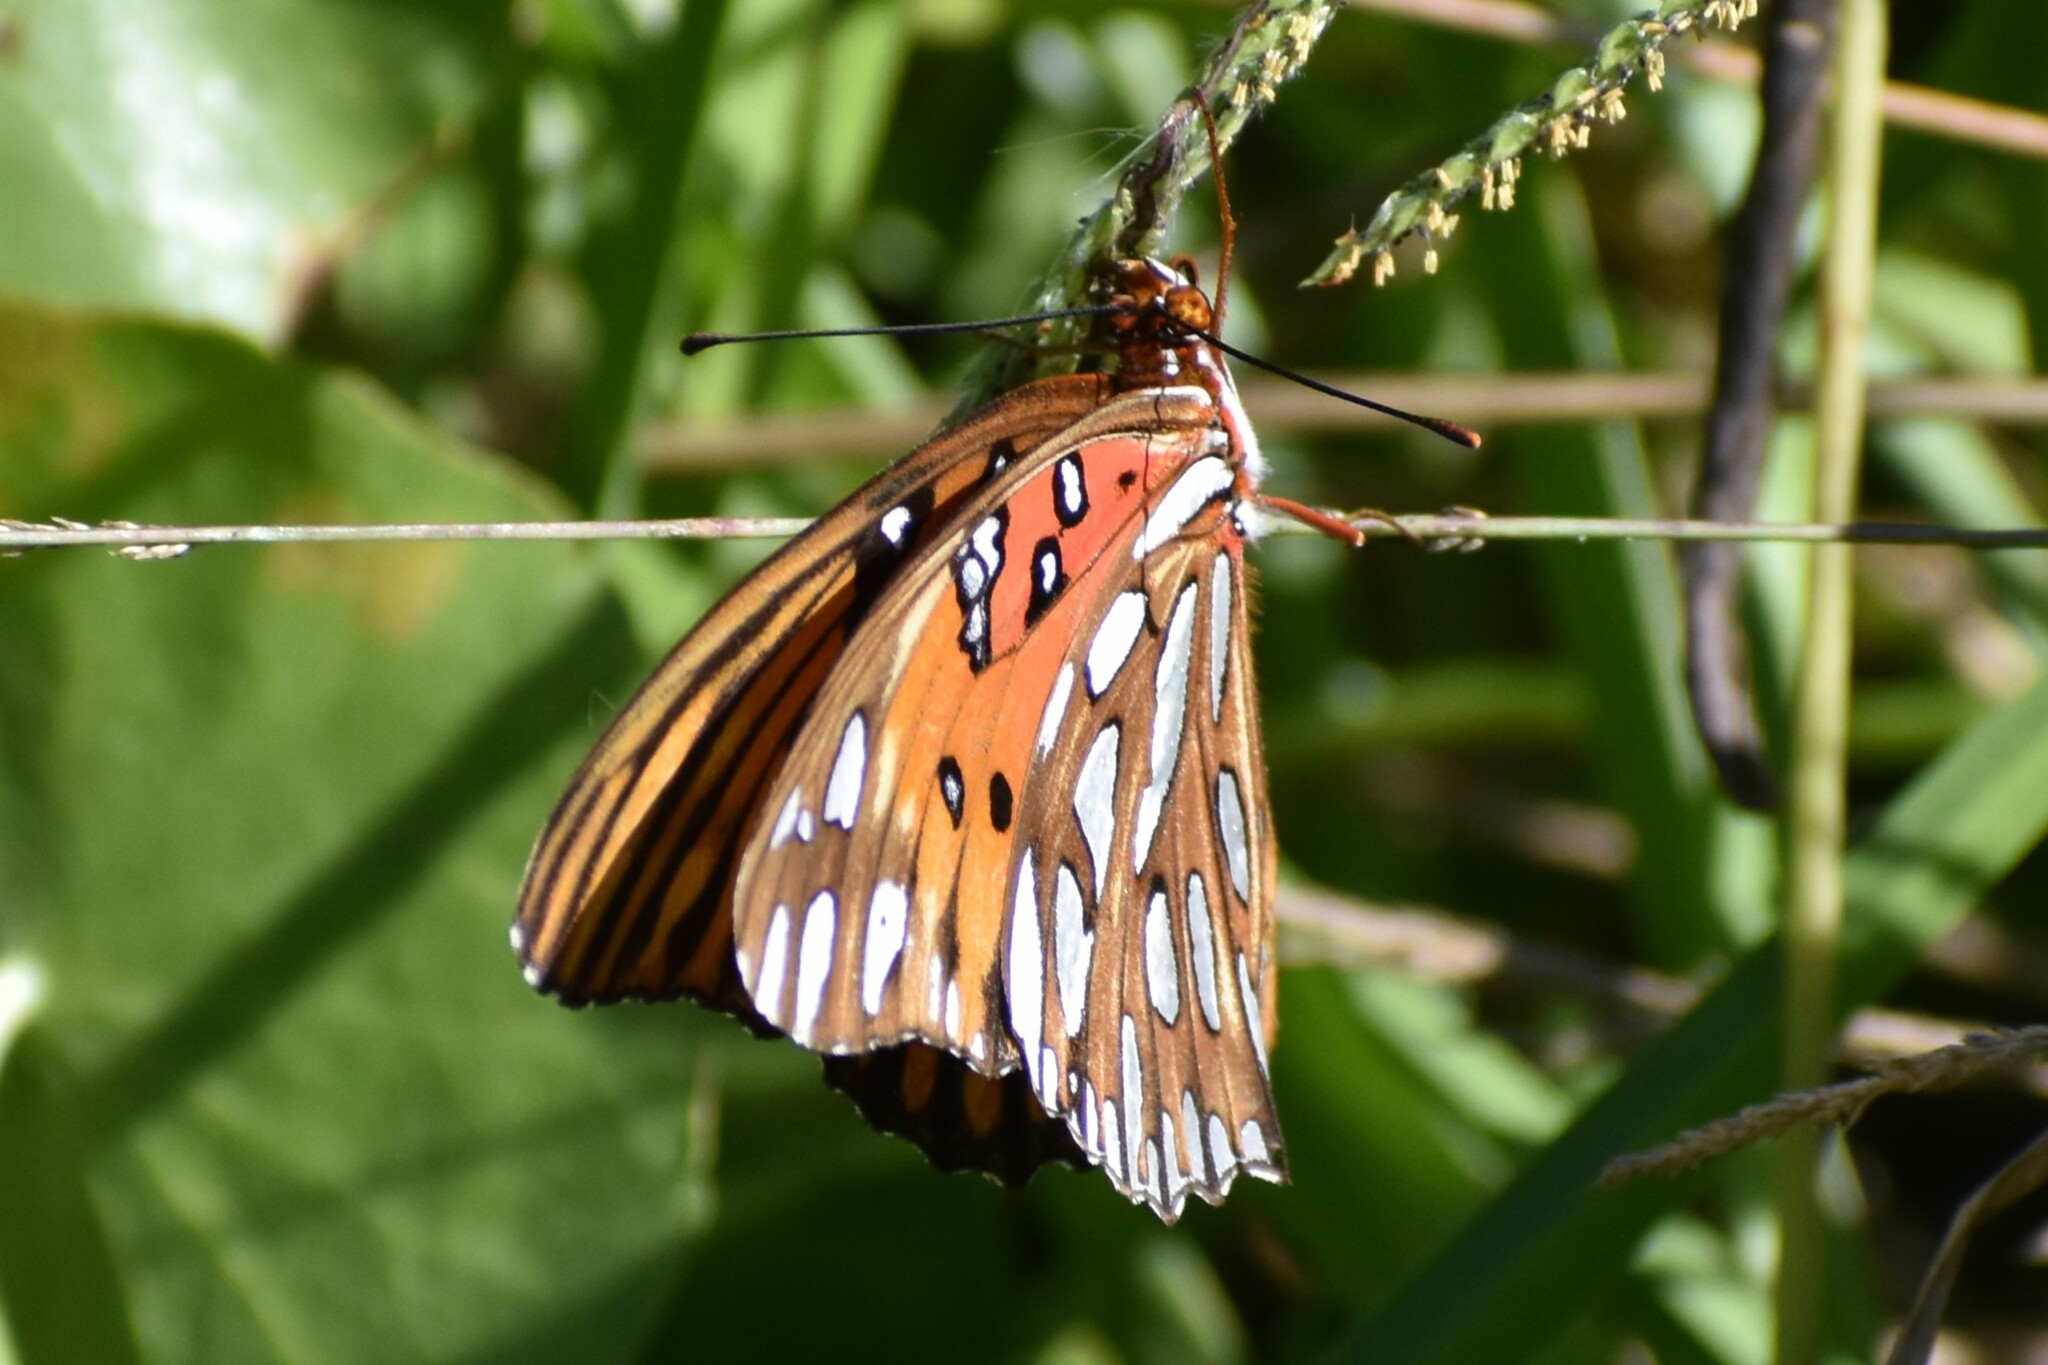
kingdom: Animalia
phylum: Arthropoda
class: Insecta
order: Lepidoptera
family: Nymphalidae
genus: Dione
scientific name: Dione vanillae
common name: Gulf fritillary
